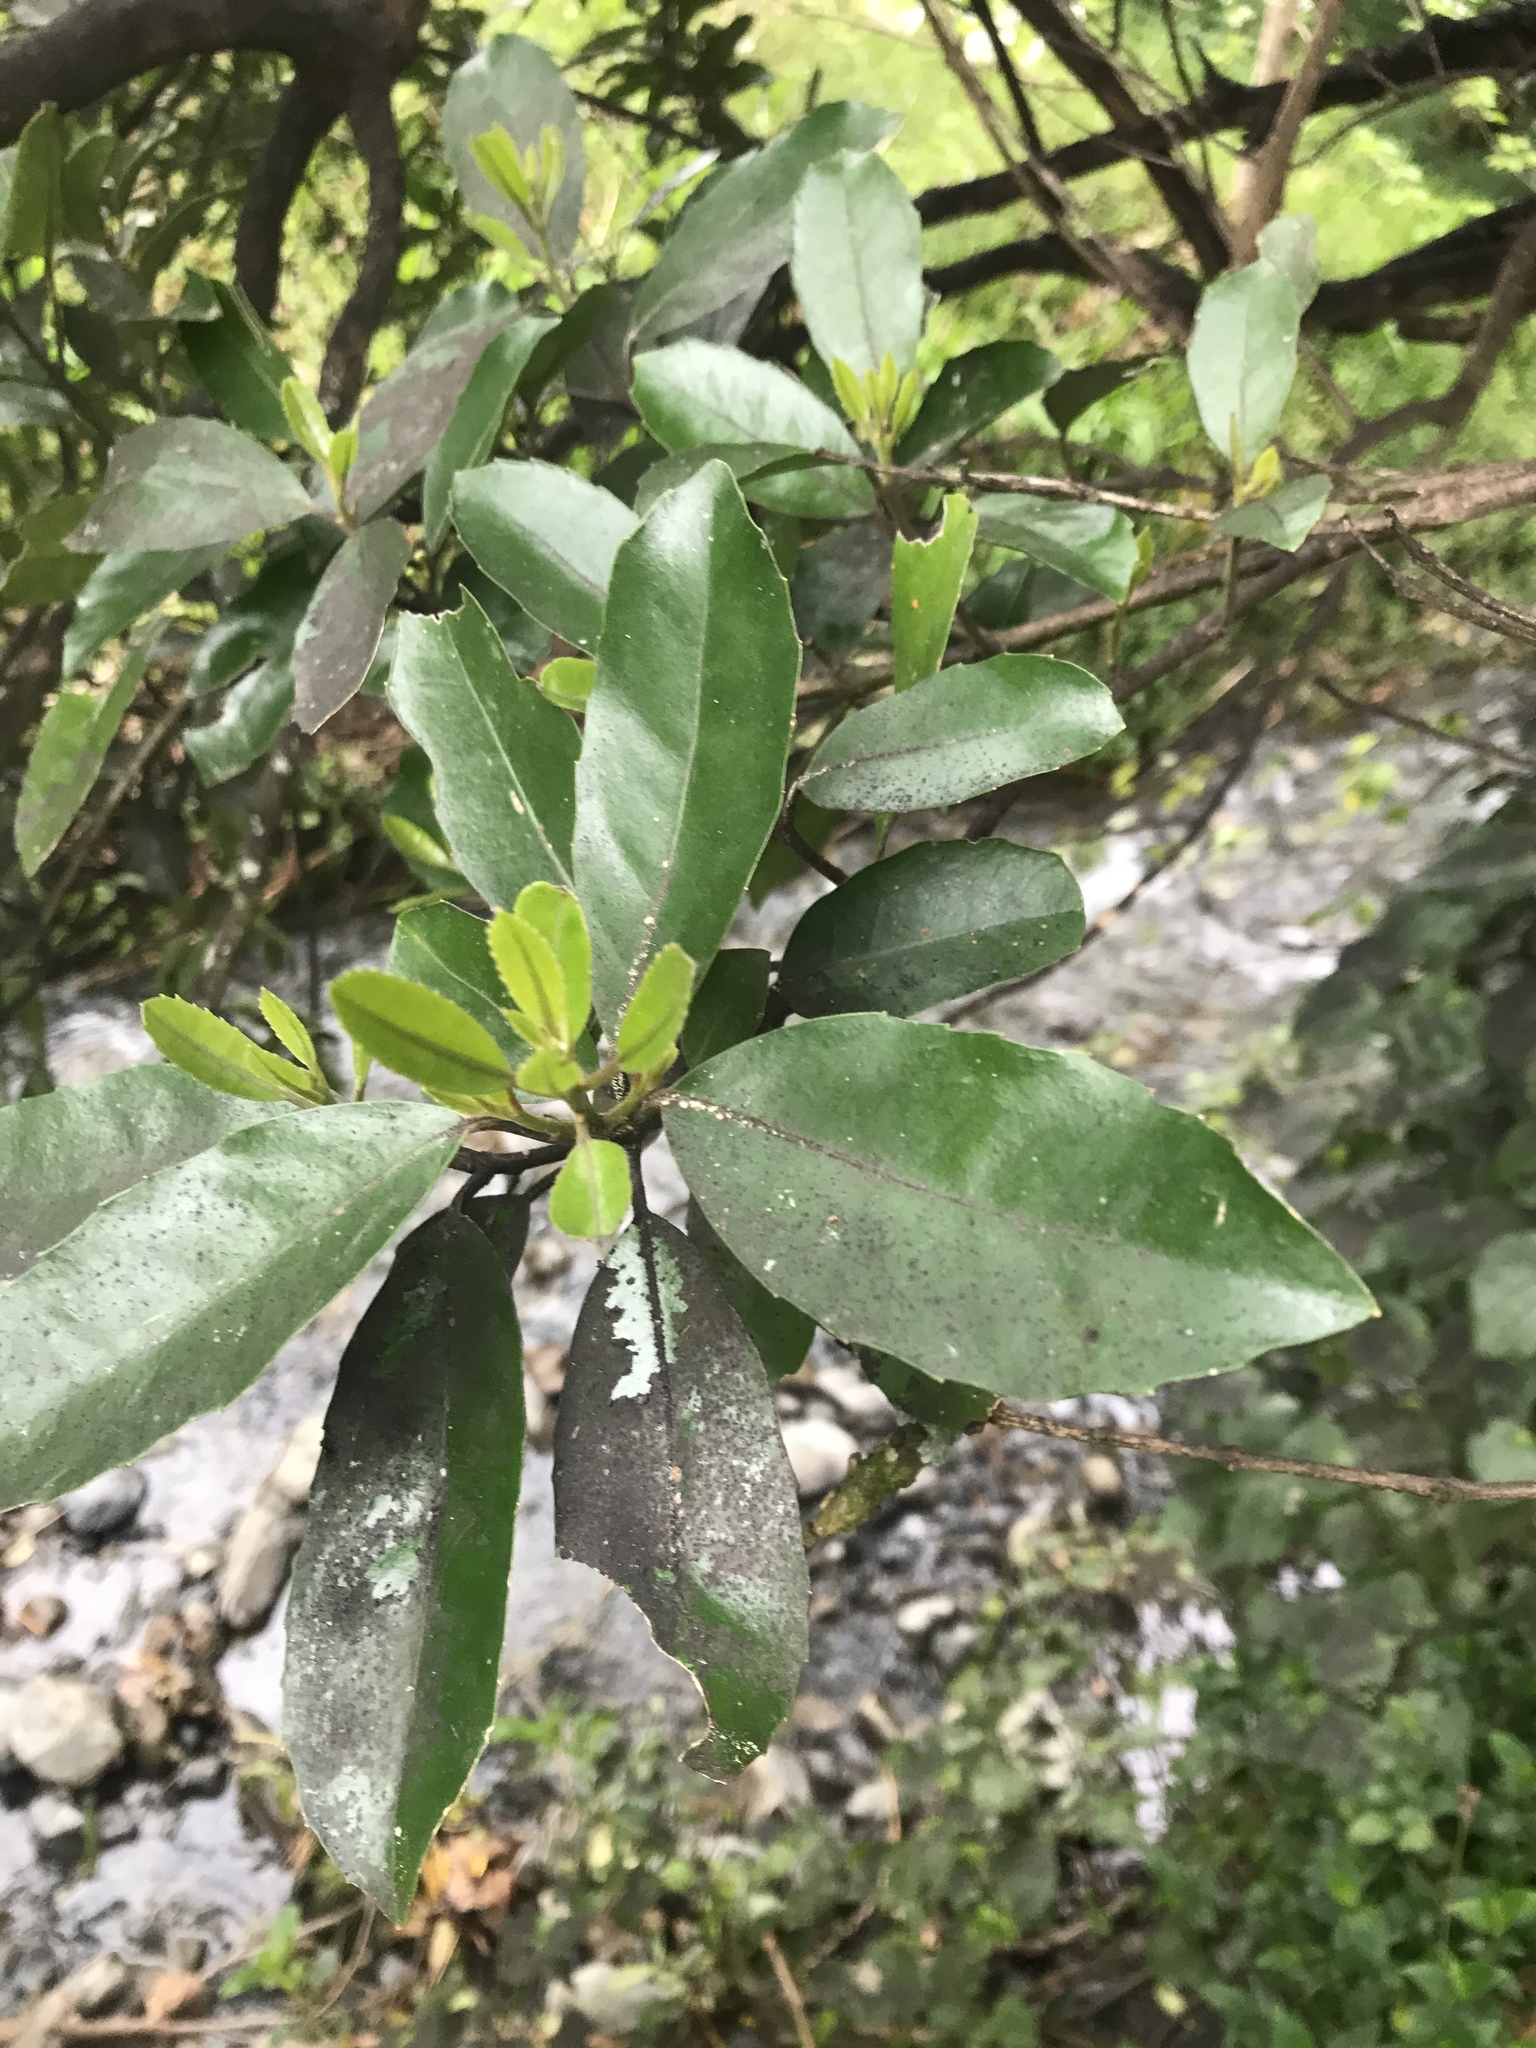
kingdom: Plantae
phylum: Tracheophyta
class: Magnoliopsida
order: Laurales
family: Monimiaceae
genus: Hedycarya
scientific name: Hedycarya arborea
